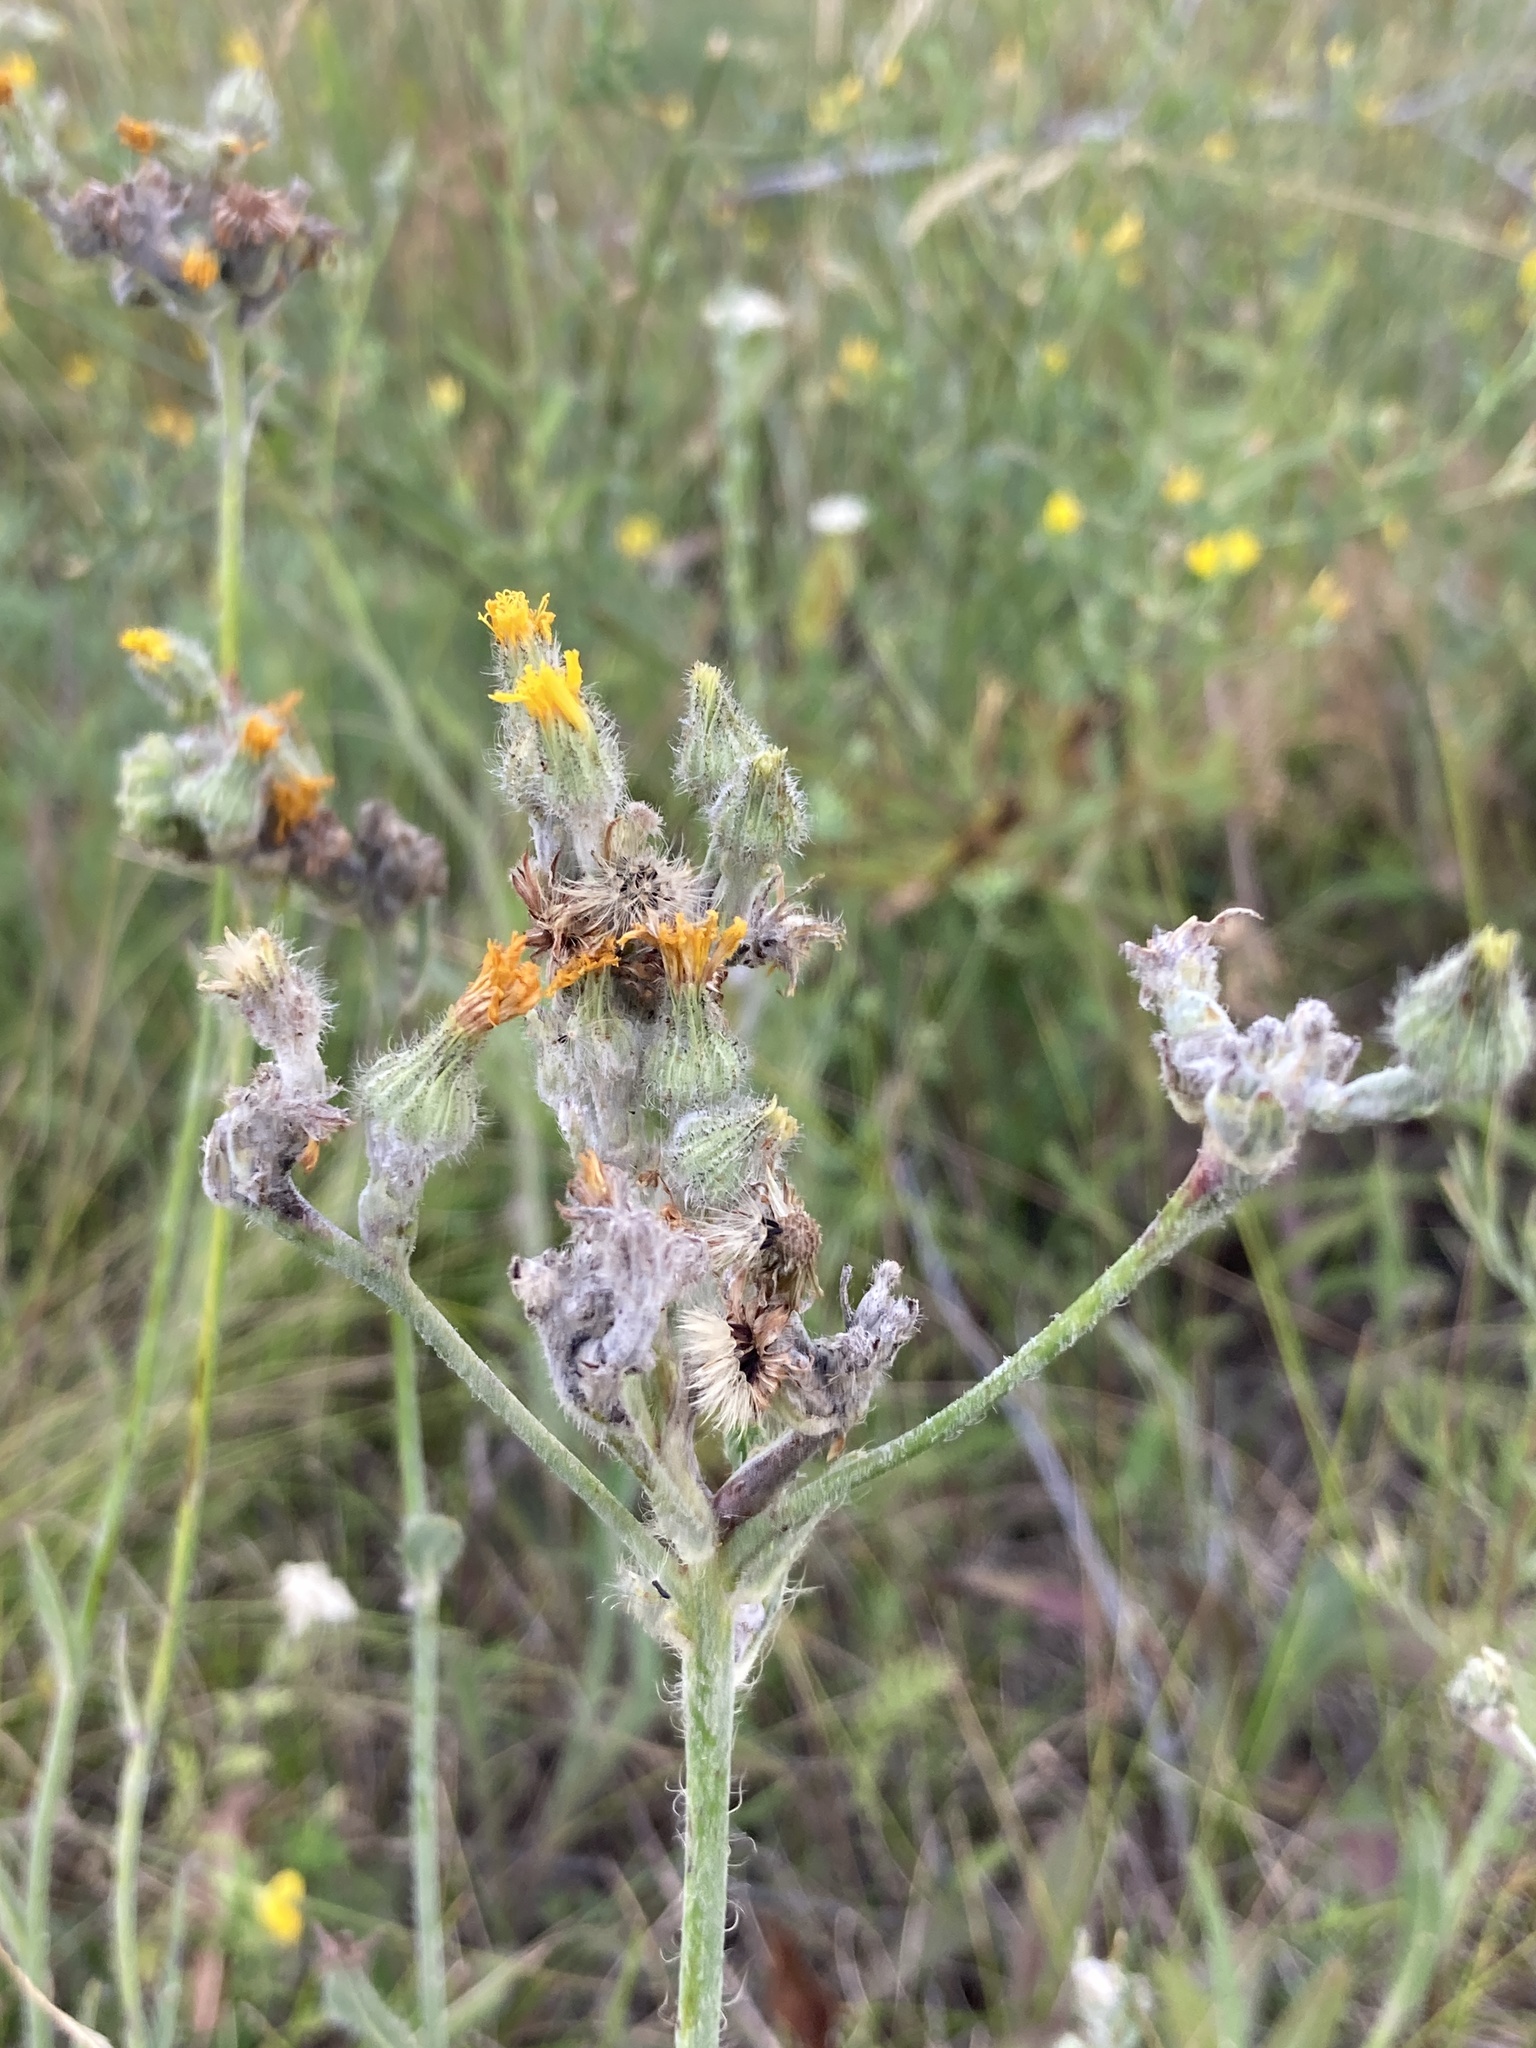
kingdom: Plantae
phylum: Tracheophyta
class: Magnoliopsida
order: Asterales
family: Asteraceae
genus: Pilosella
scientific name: Pilosella echioides
